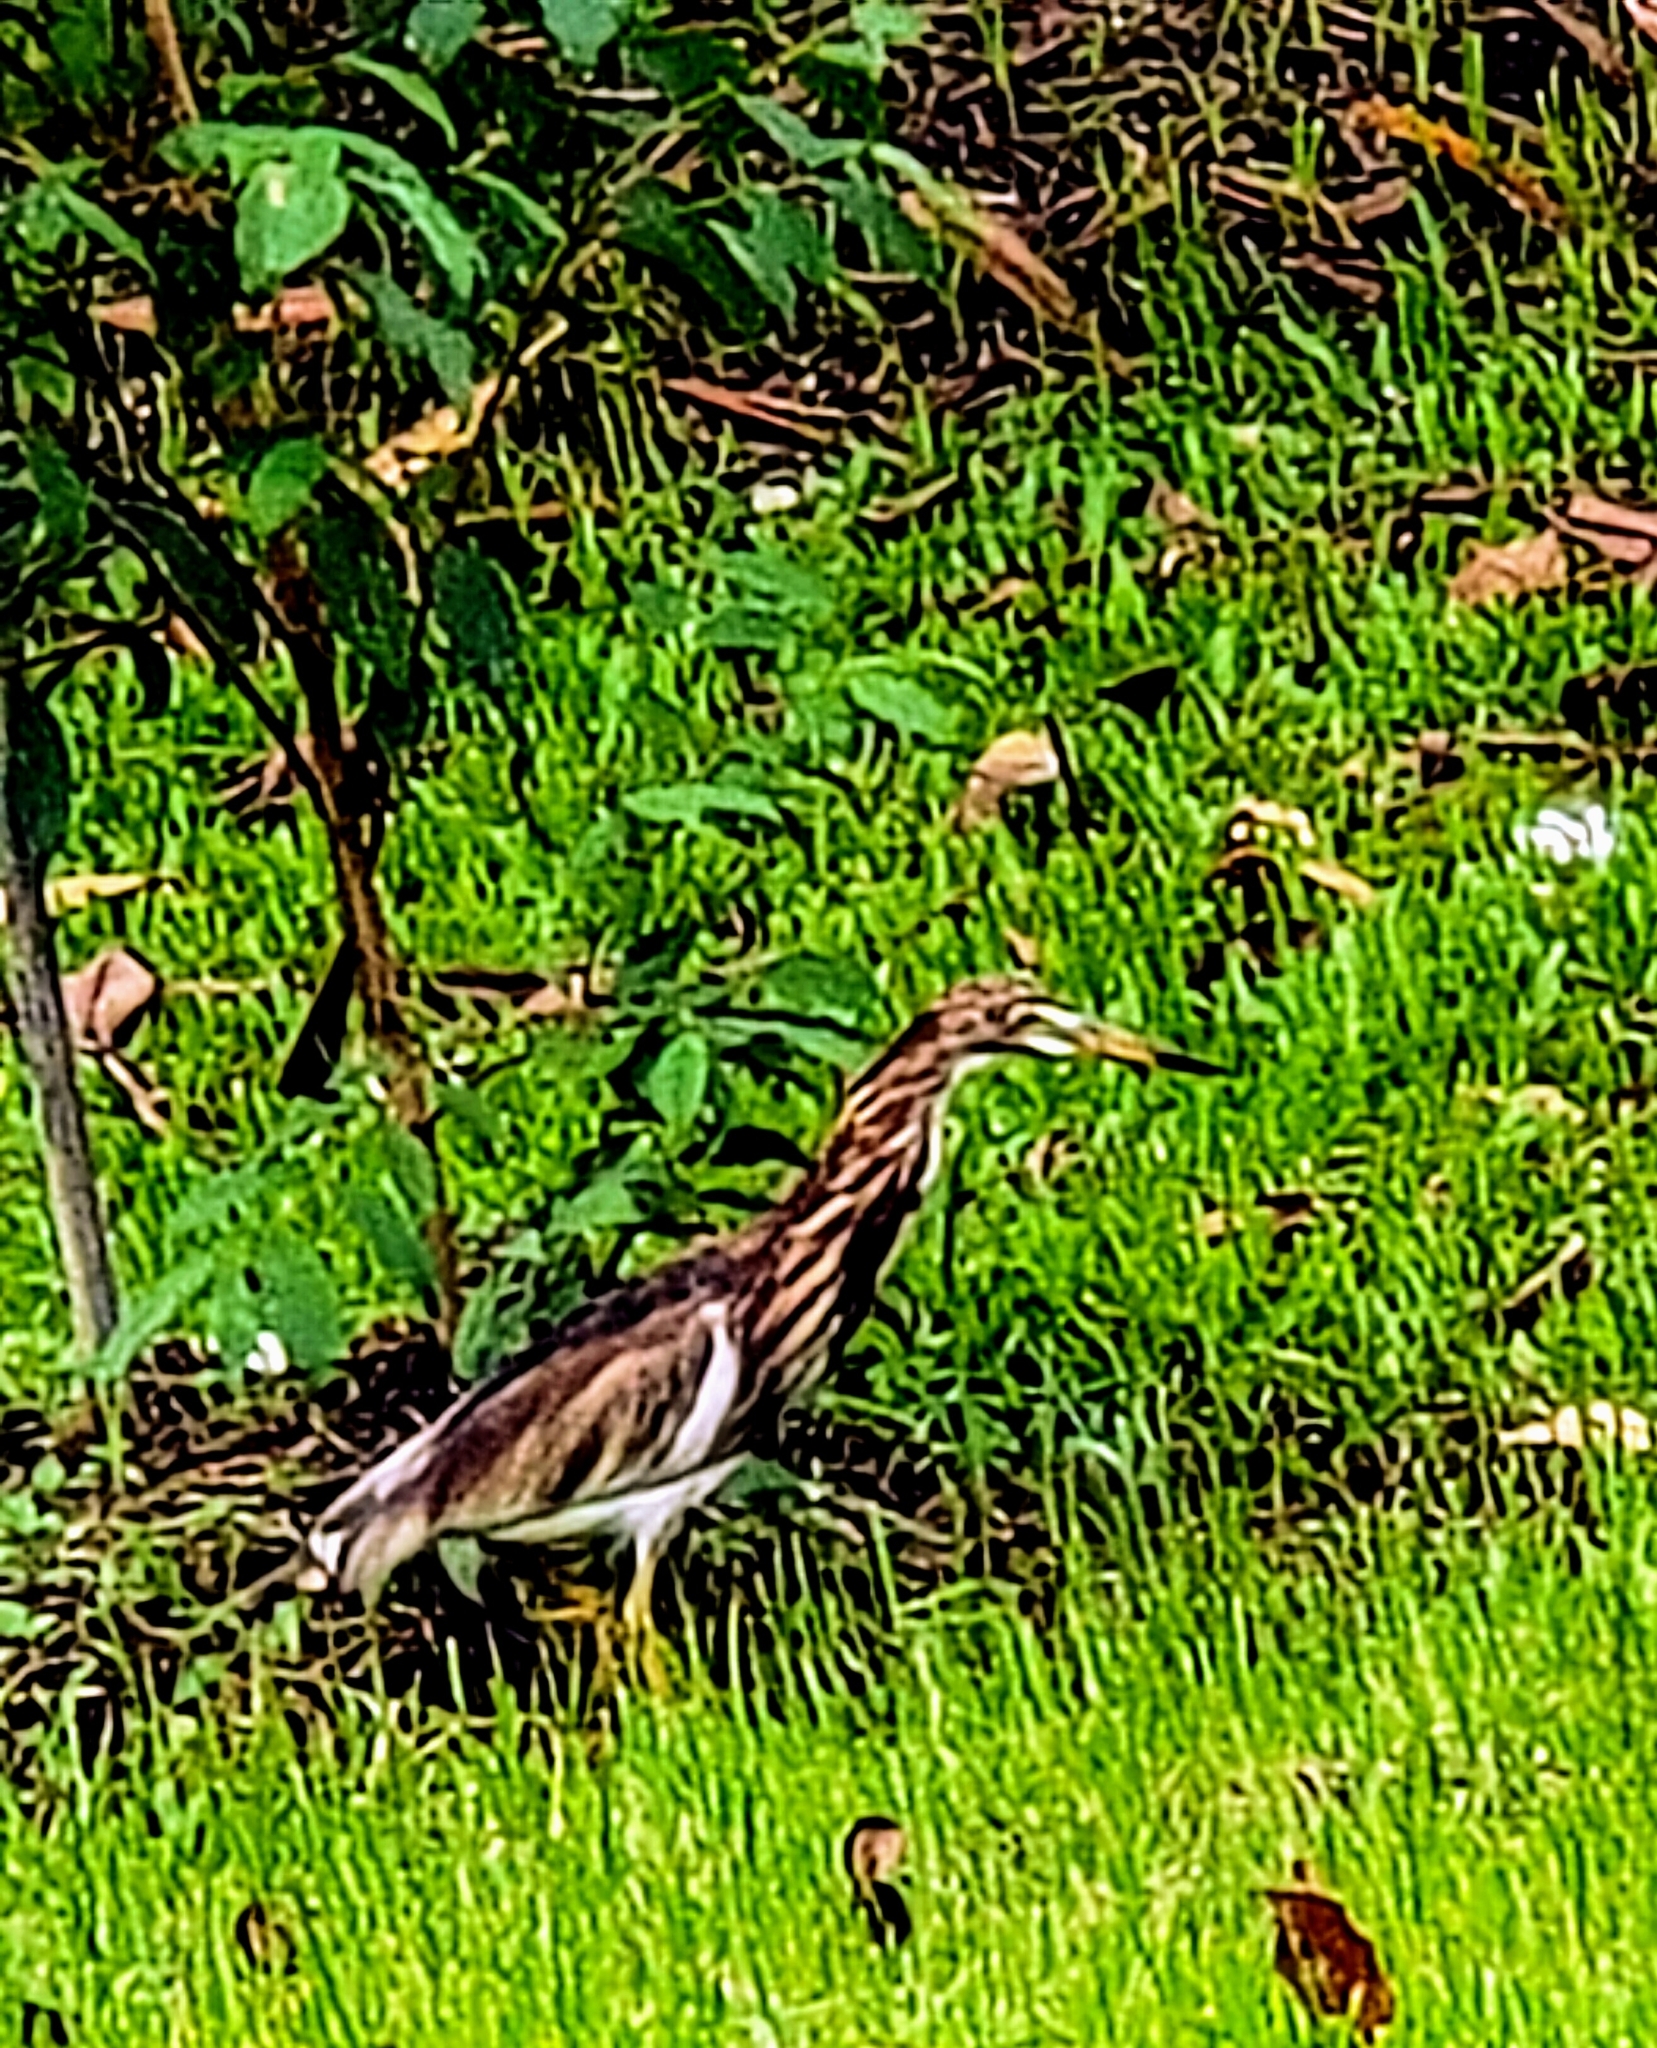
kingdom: Animalia
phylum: Chordata
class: Aves
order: Pelecaniformes
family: Ardeidae
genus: Ardeola
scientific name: Ardeola
